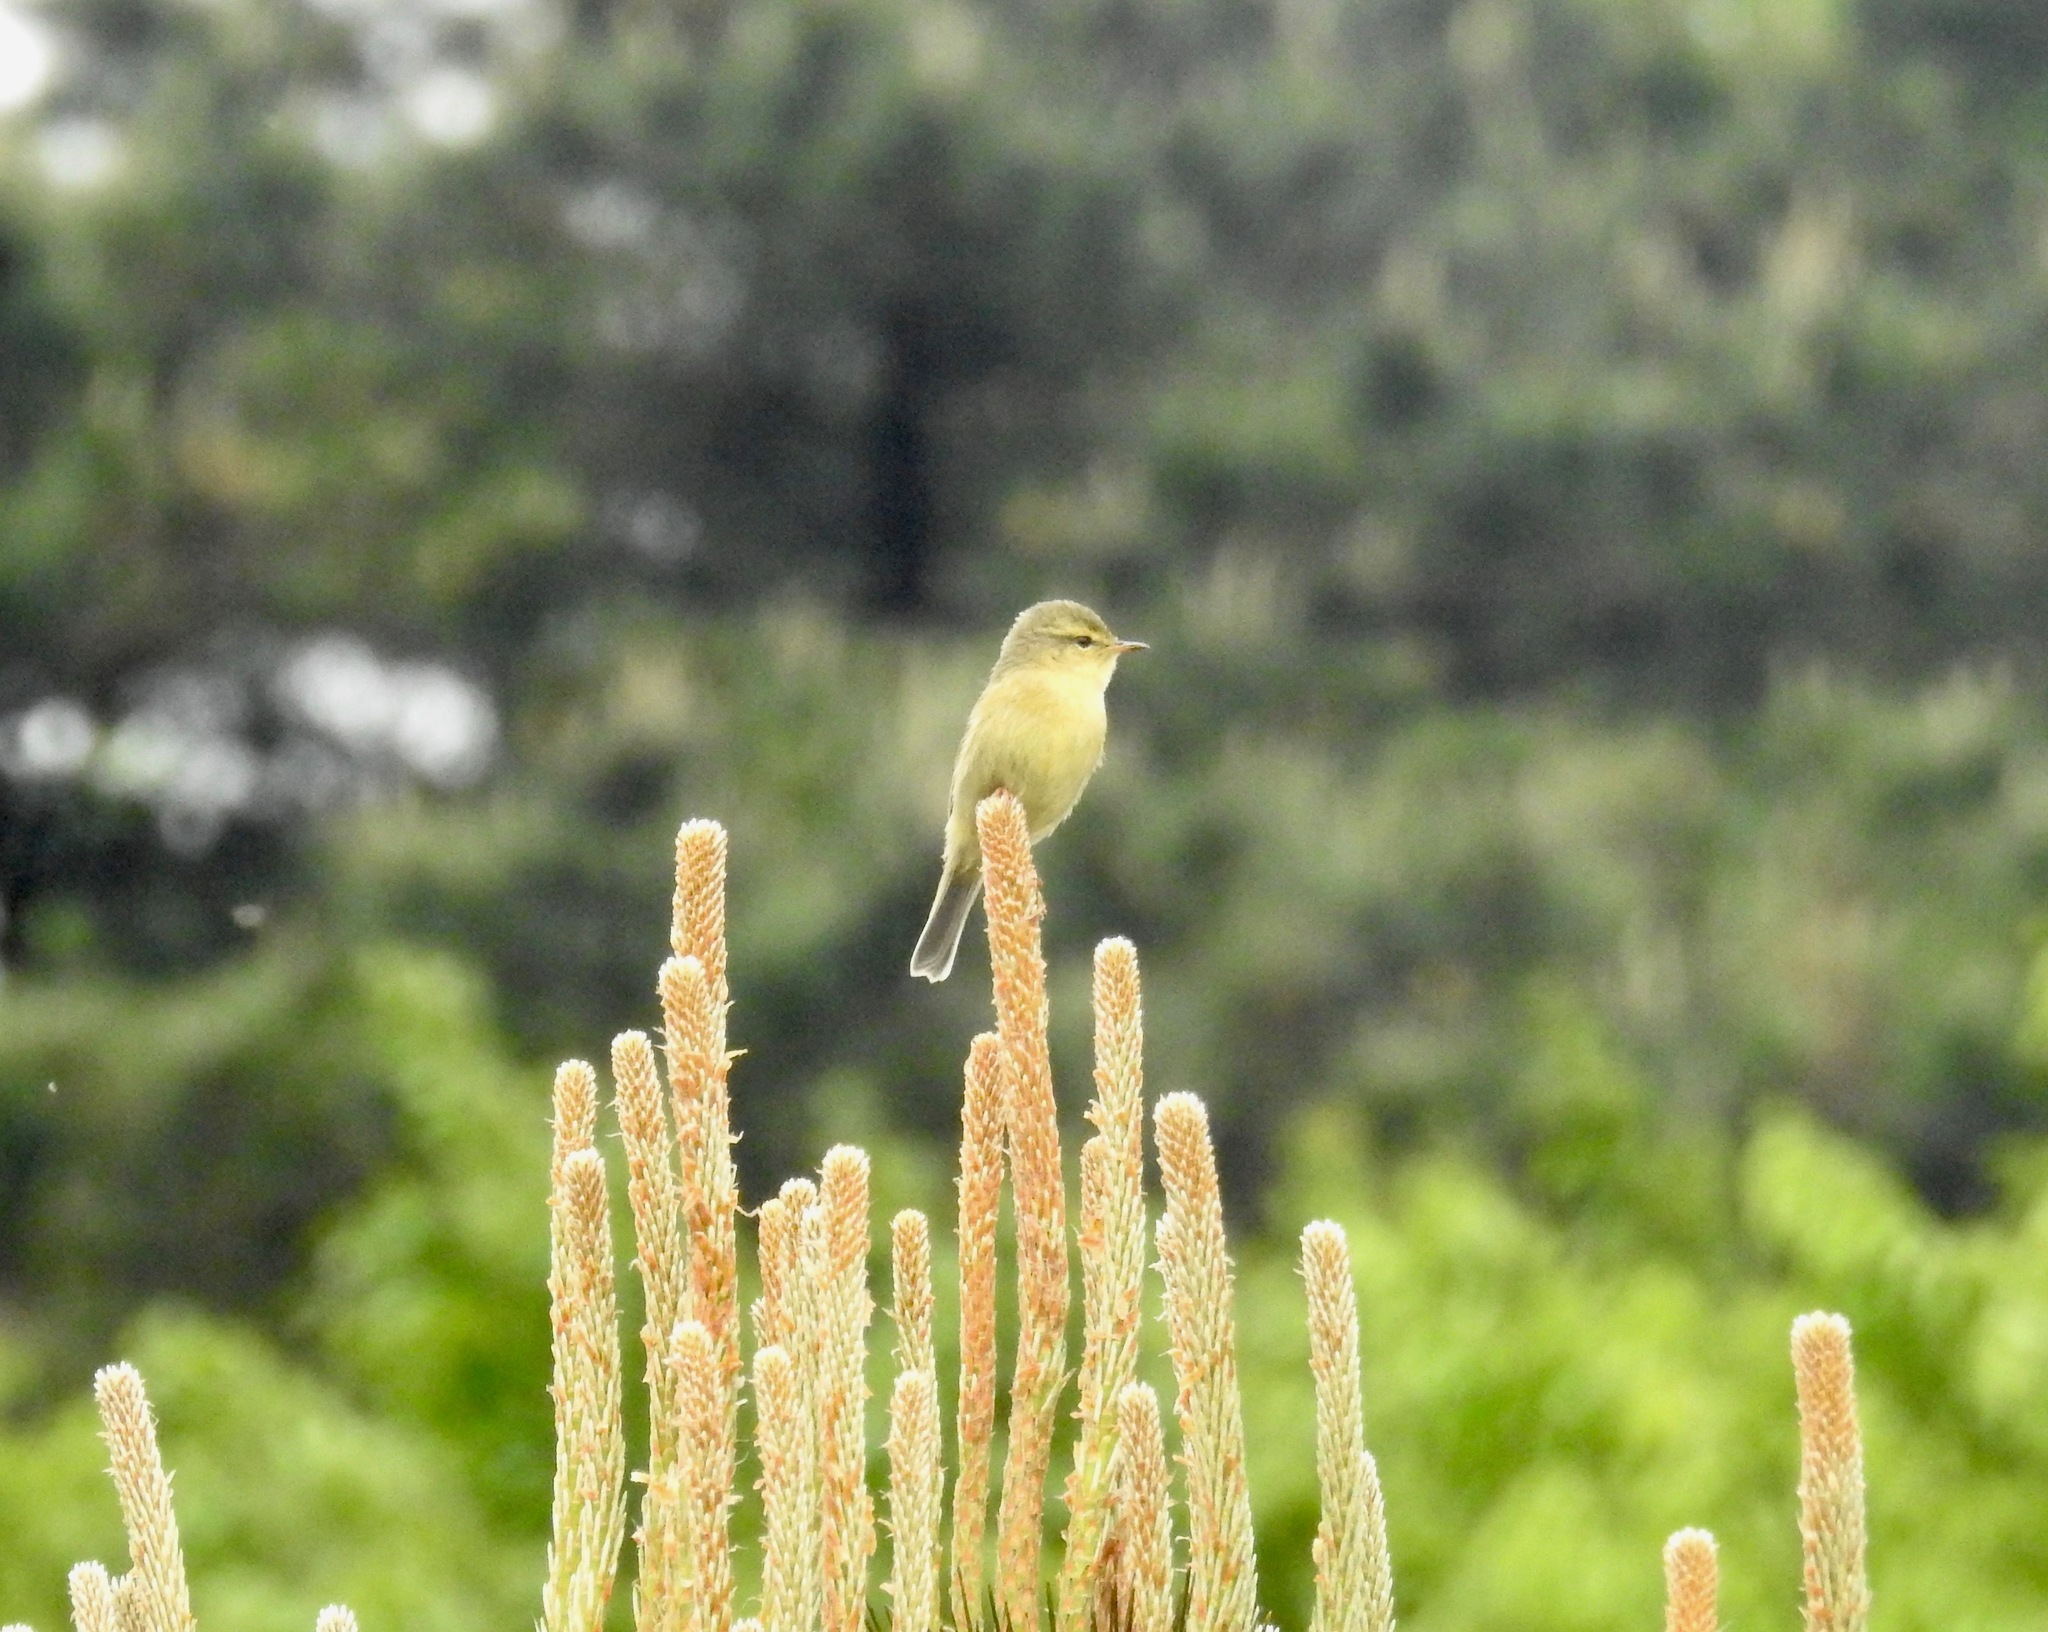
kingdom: Animalia
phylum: Chordata
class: Aves
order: Passeriformes
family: Phylloscopidae
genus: Phylloscopus
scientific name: Phylloscopus subaffinis
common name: Buff-throated warbler
